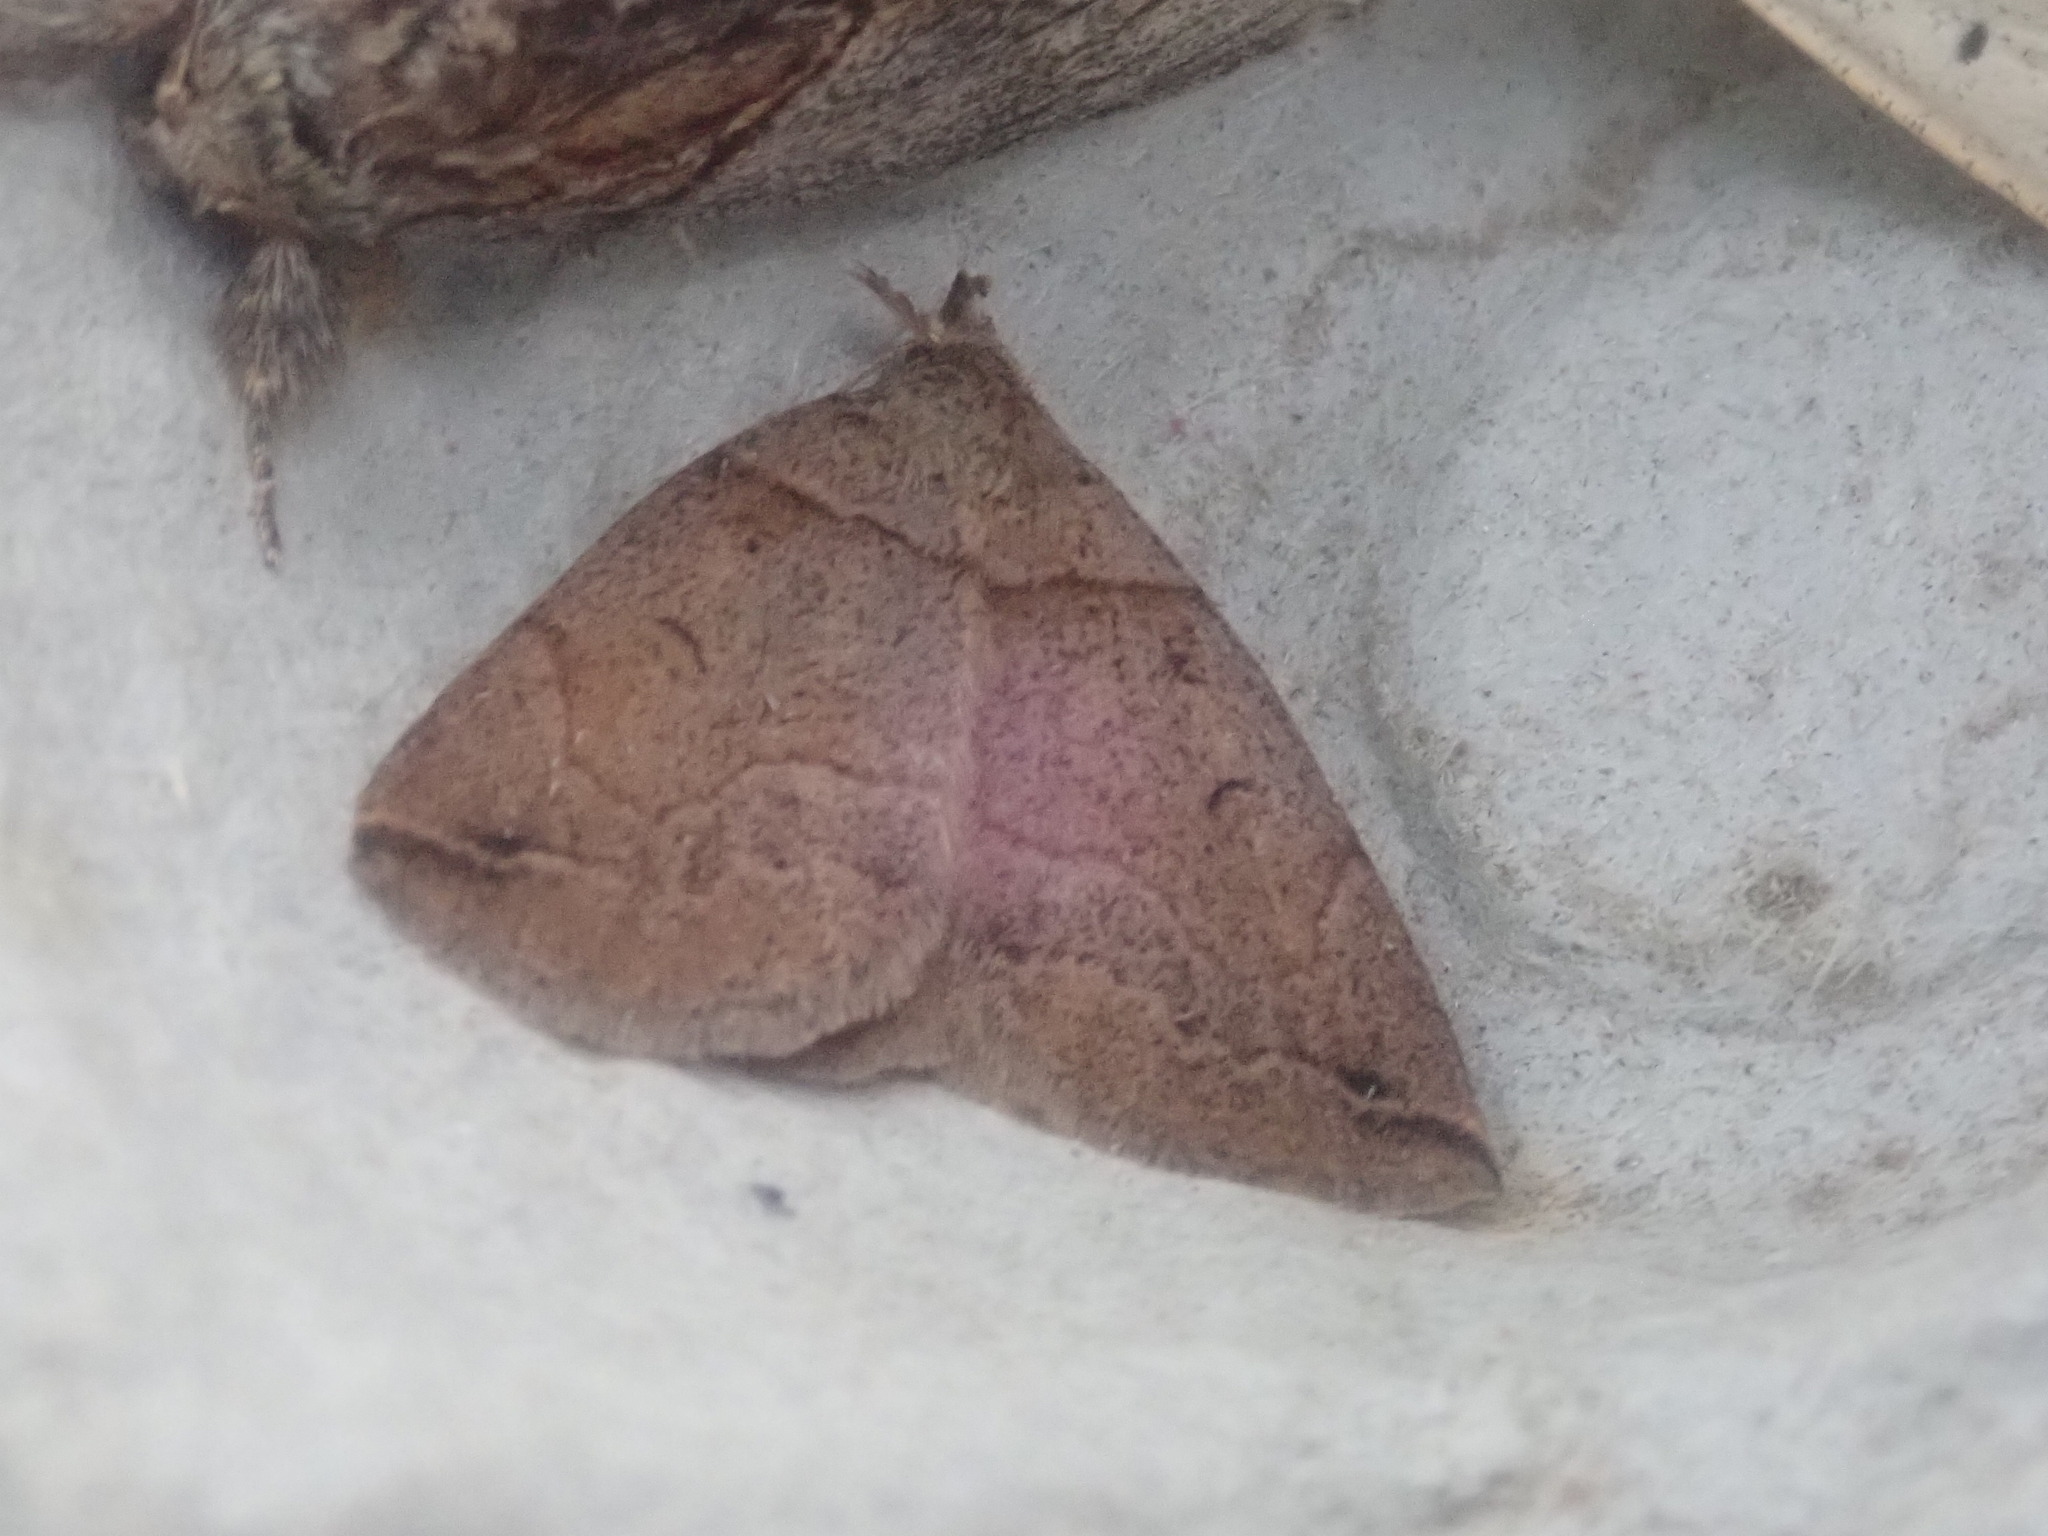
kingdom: Animalia
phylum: Arthropoda
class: Insecta
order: Lepidoptera
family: Erebidae
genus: Zanclognatha
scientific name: Zanclognatha laevigata
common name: Variable fan-foot
